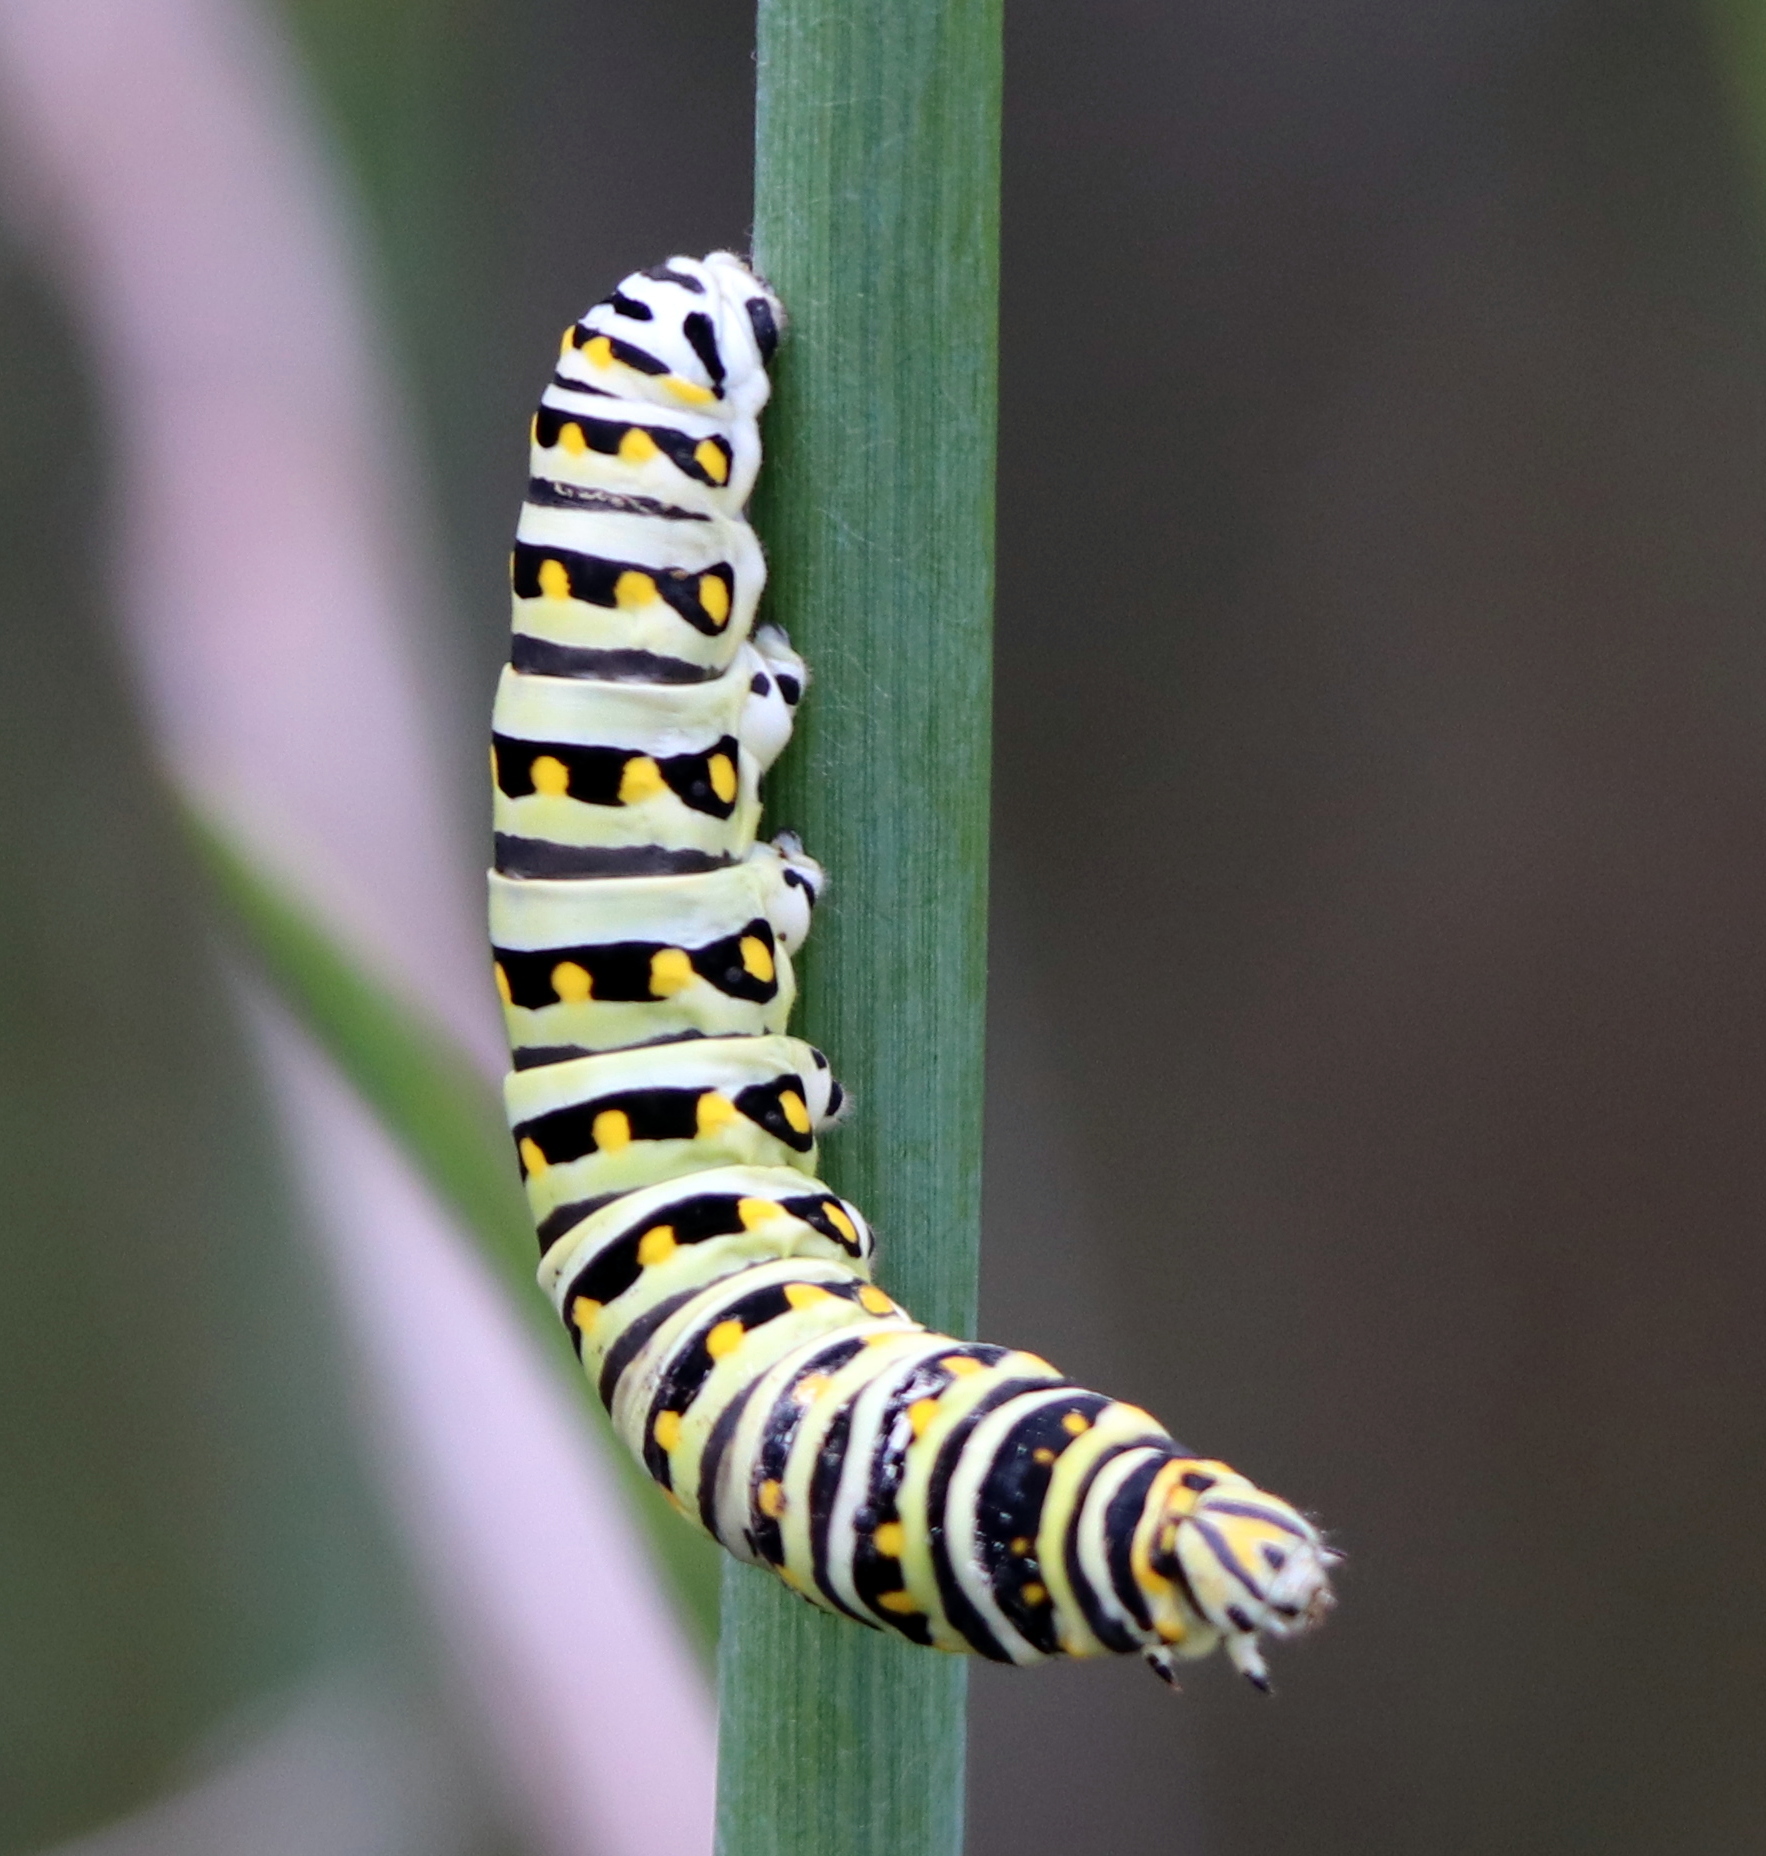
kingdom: Animalia
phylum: Arthropoda
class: Insecta
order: Lepidoptera
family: Papilionidae
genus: Papilio
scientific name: Papilio polyxenes
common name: Black swallowtail
